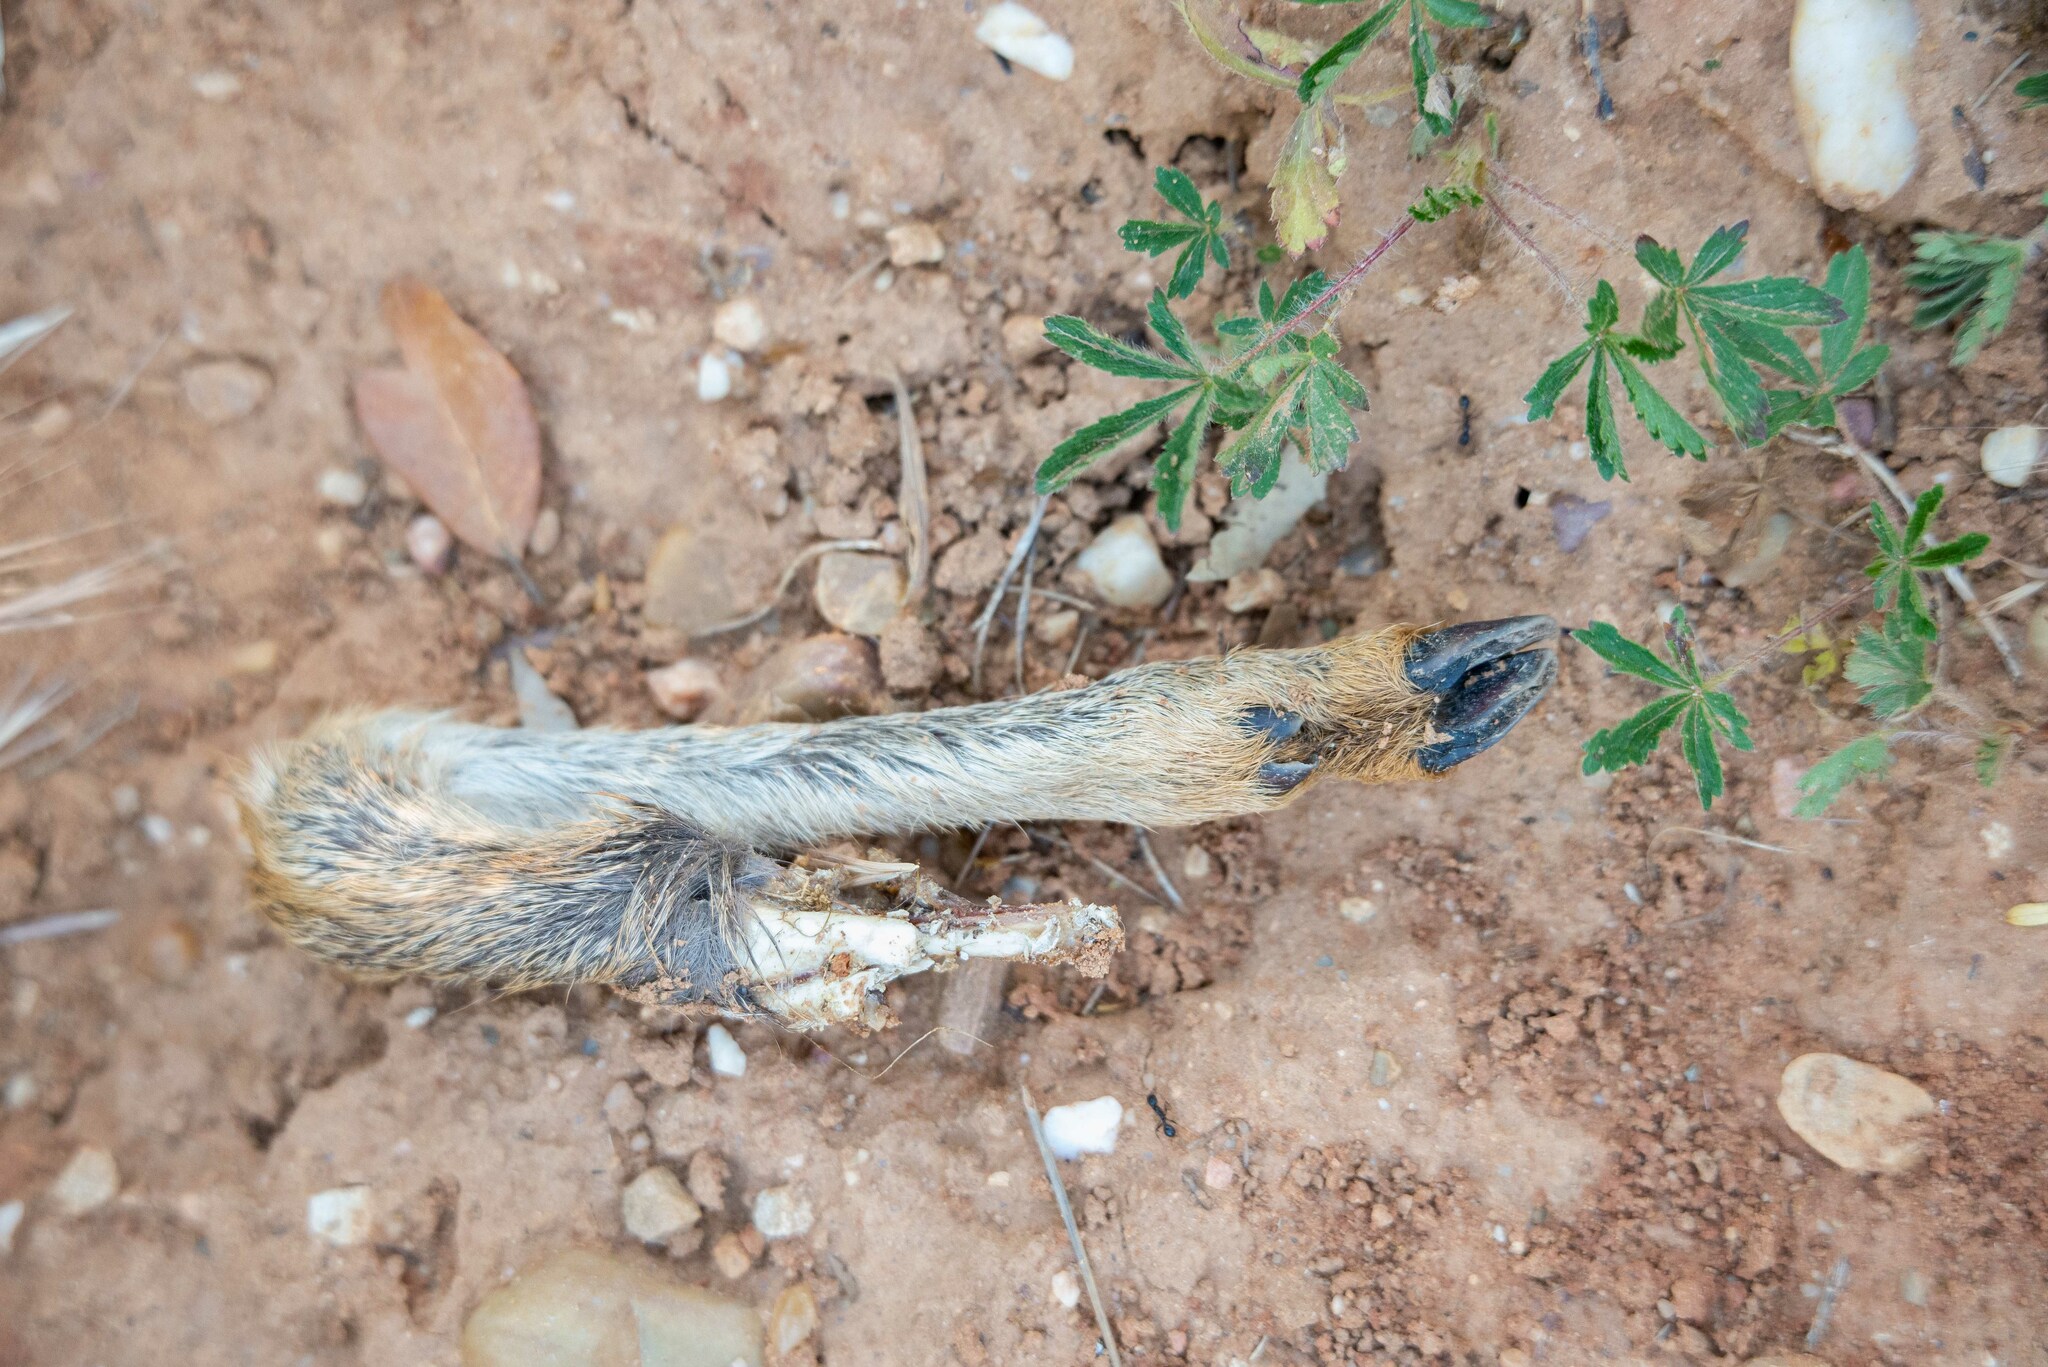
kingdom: Animalia
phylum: Chordata
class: Mammalia
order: Artiodactyla
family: Cervidae
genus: Capreolus
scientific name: Capreolus capreolus
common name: Western roe deer
